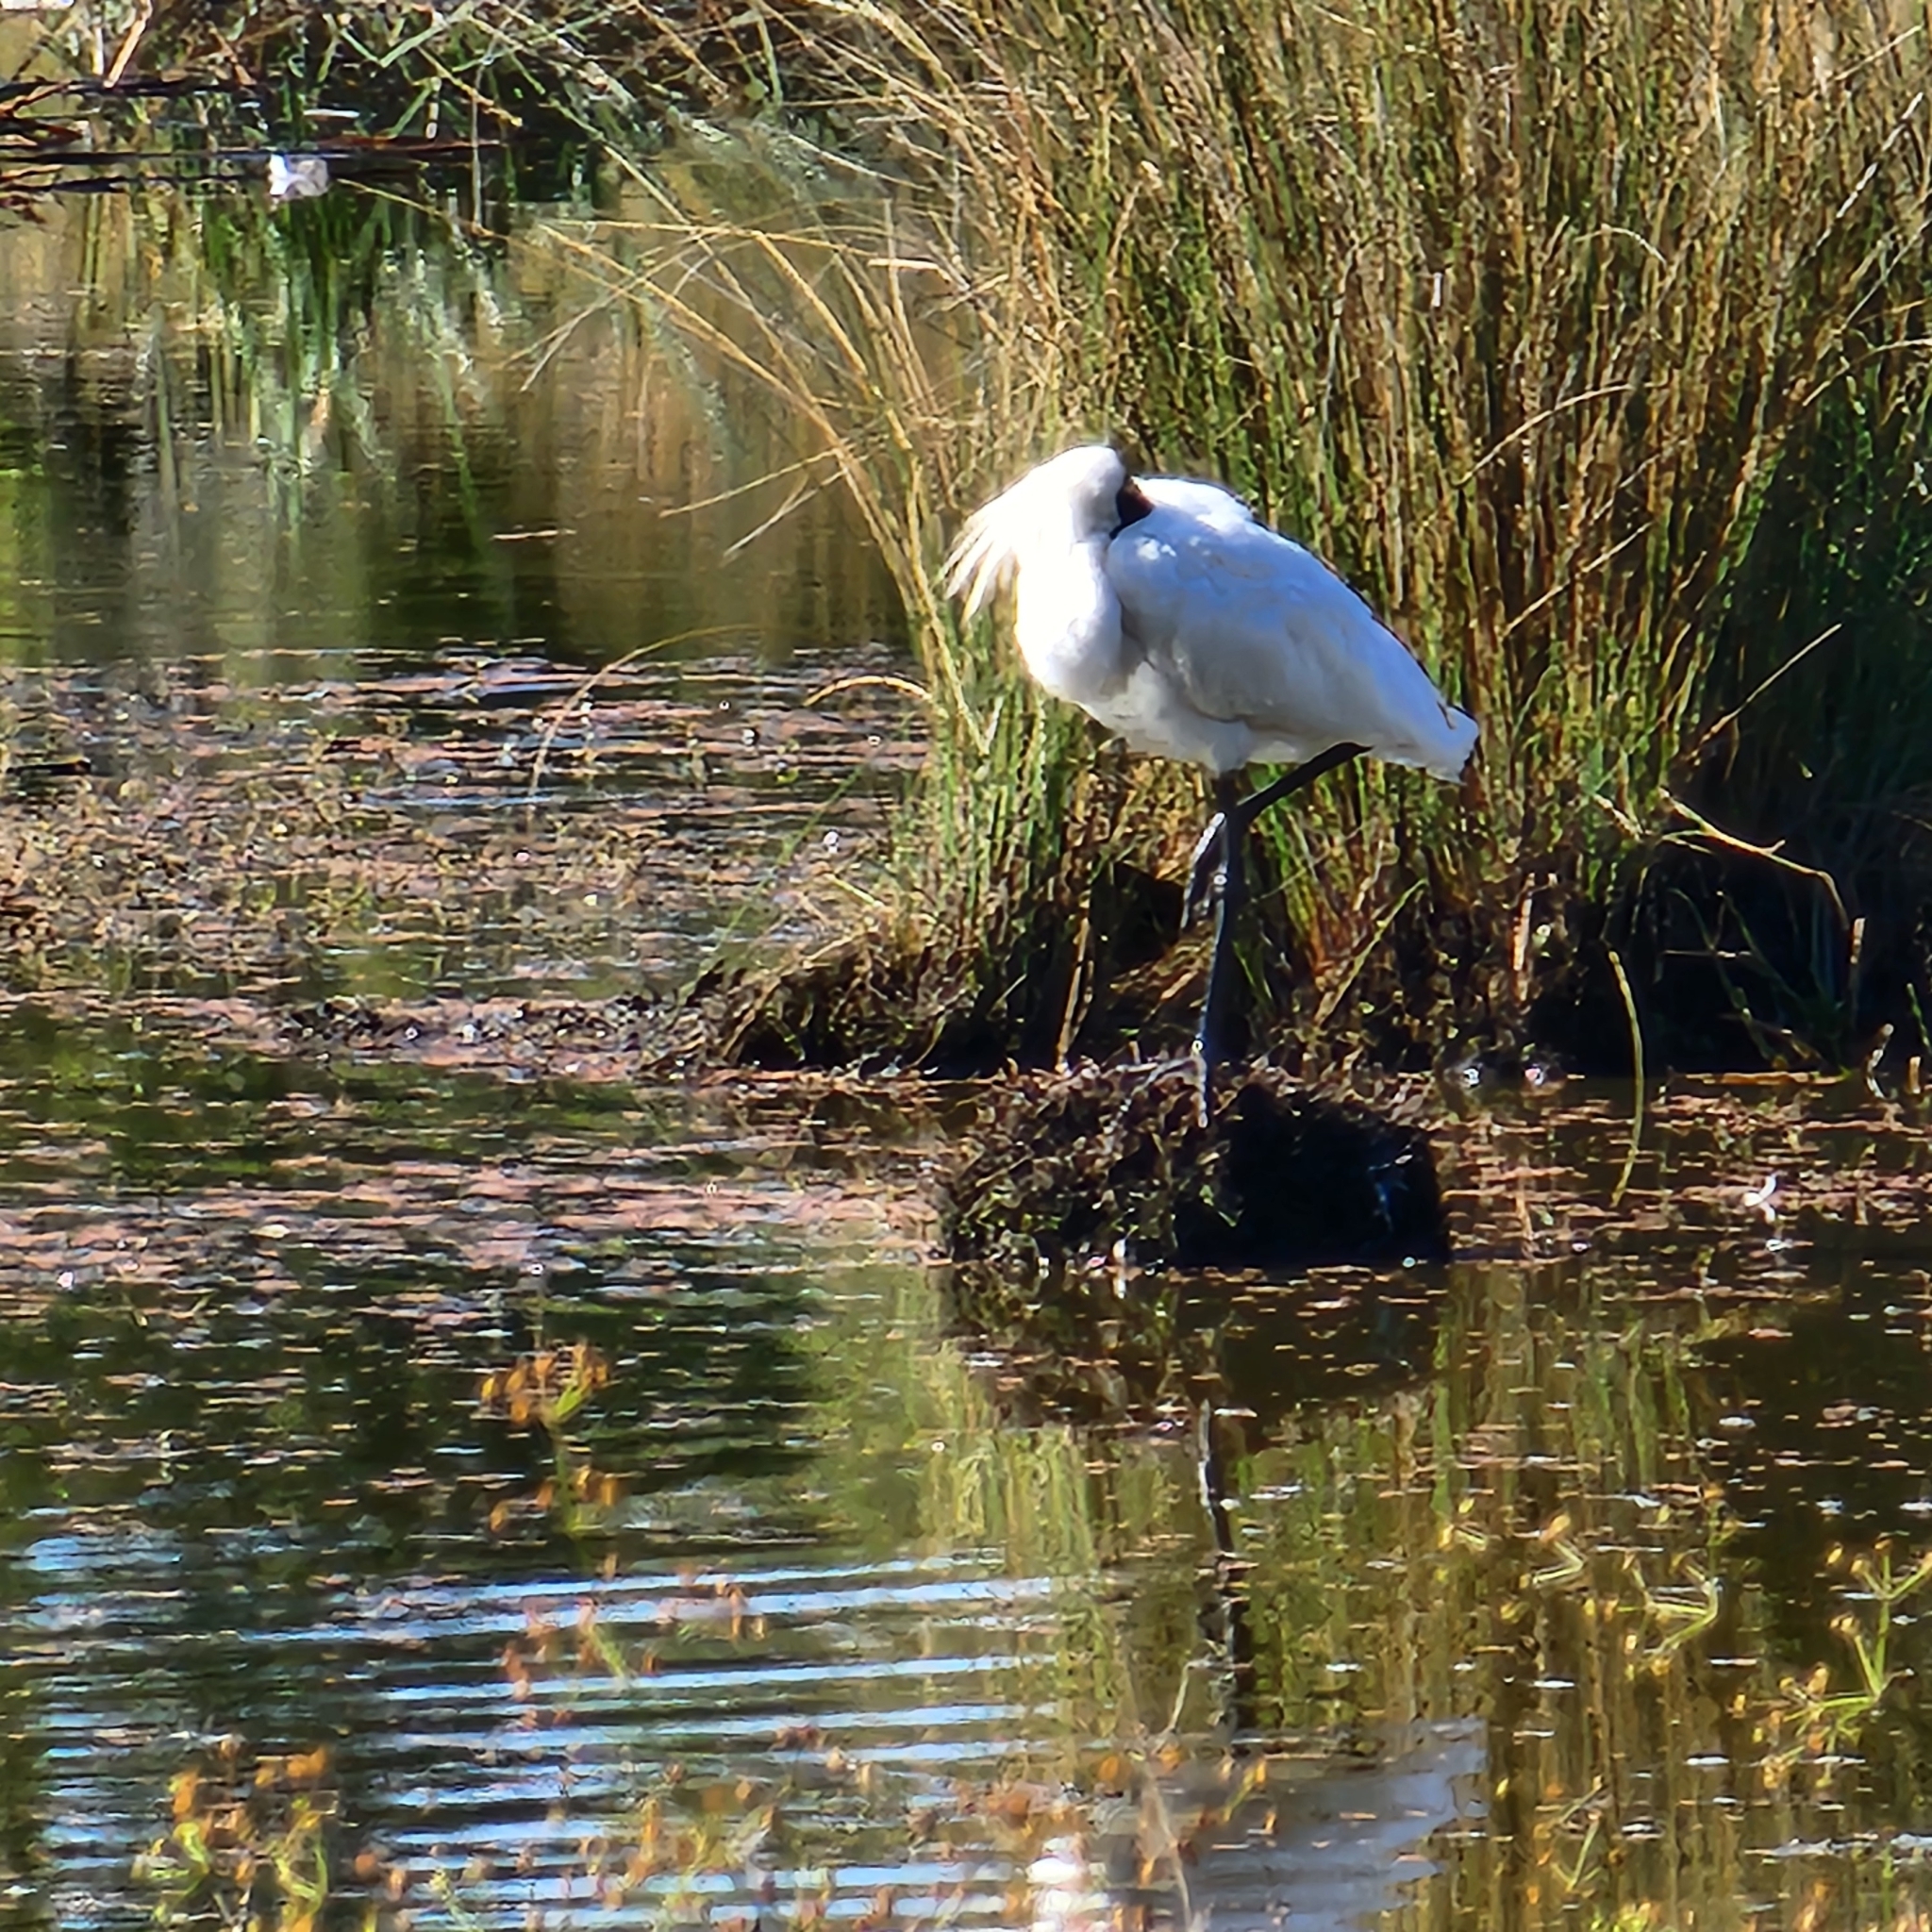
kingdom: Animalia
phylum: Chordata
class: Aves
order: Pelecaniformes
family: Threskiornithidae
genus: Platalea
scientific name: Platalea regia
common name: Royal spoonbill
